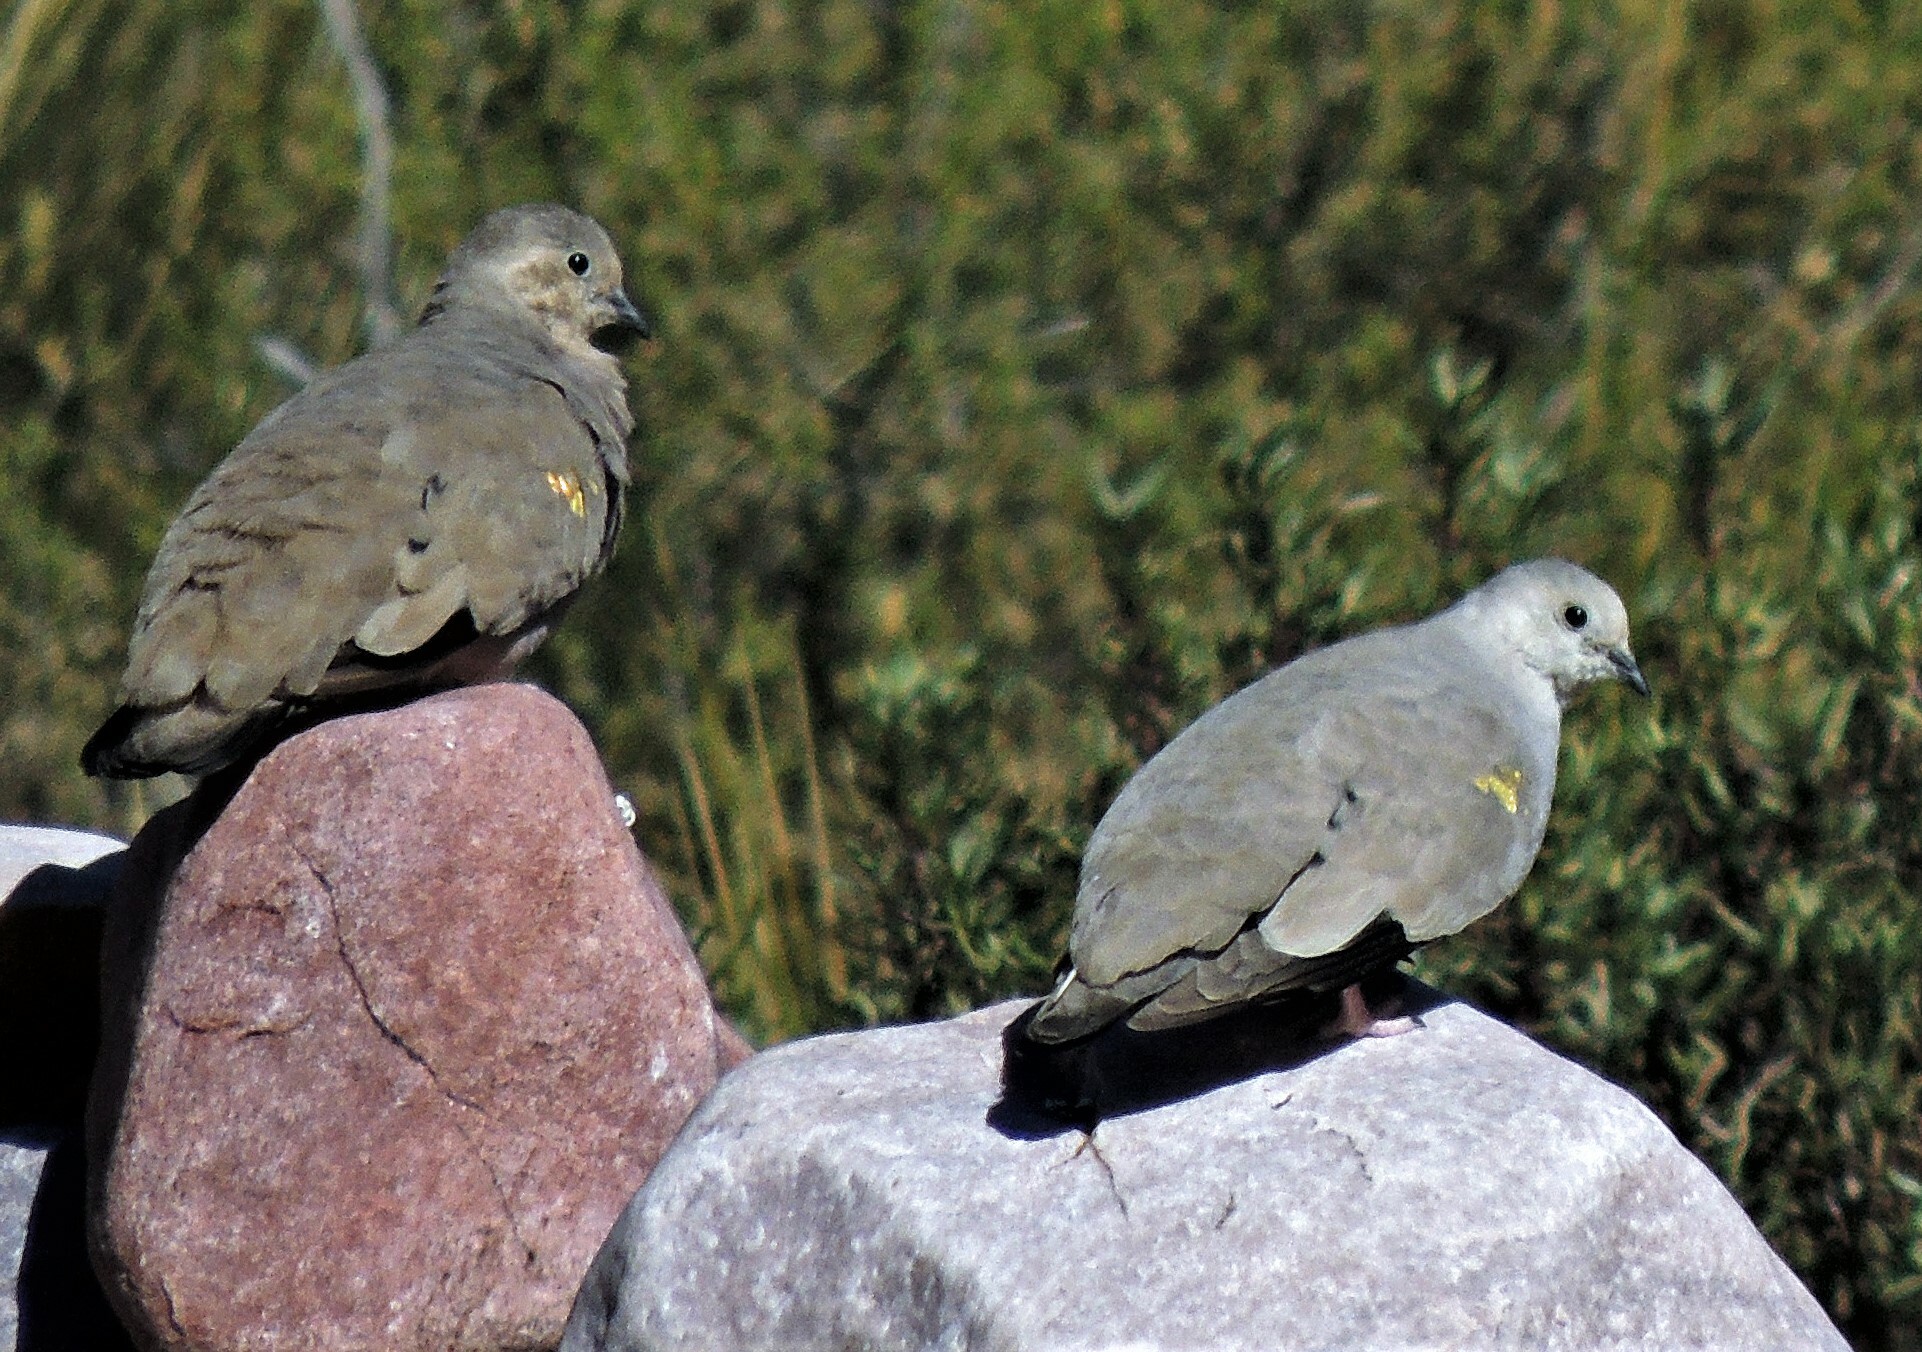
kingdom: Animalia
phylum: Chordata
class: Aves
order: Columbiformes
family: Columbidae
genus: Metriopelia
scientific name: Metriopelia aymara
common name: Golden-spotted ground dove
